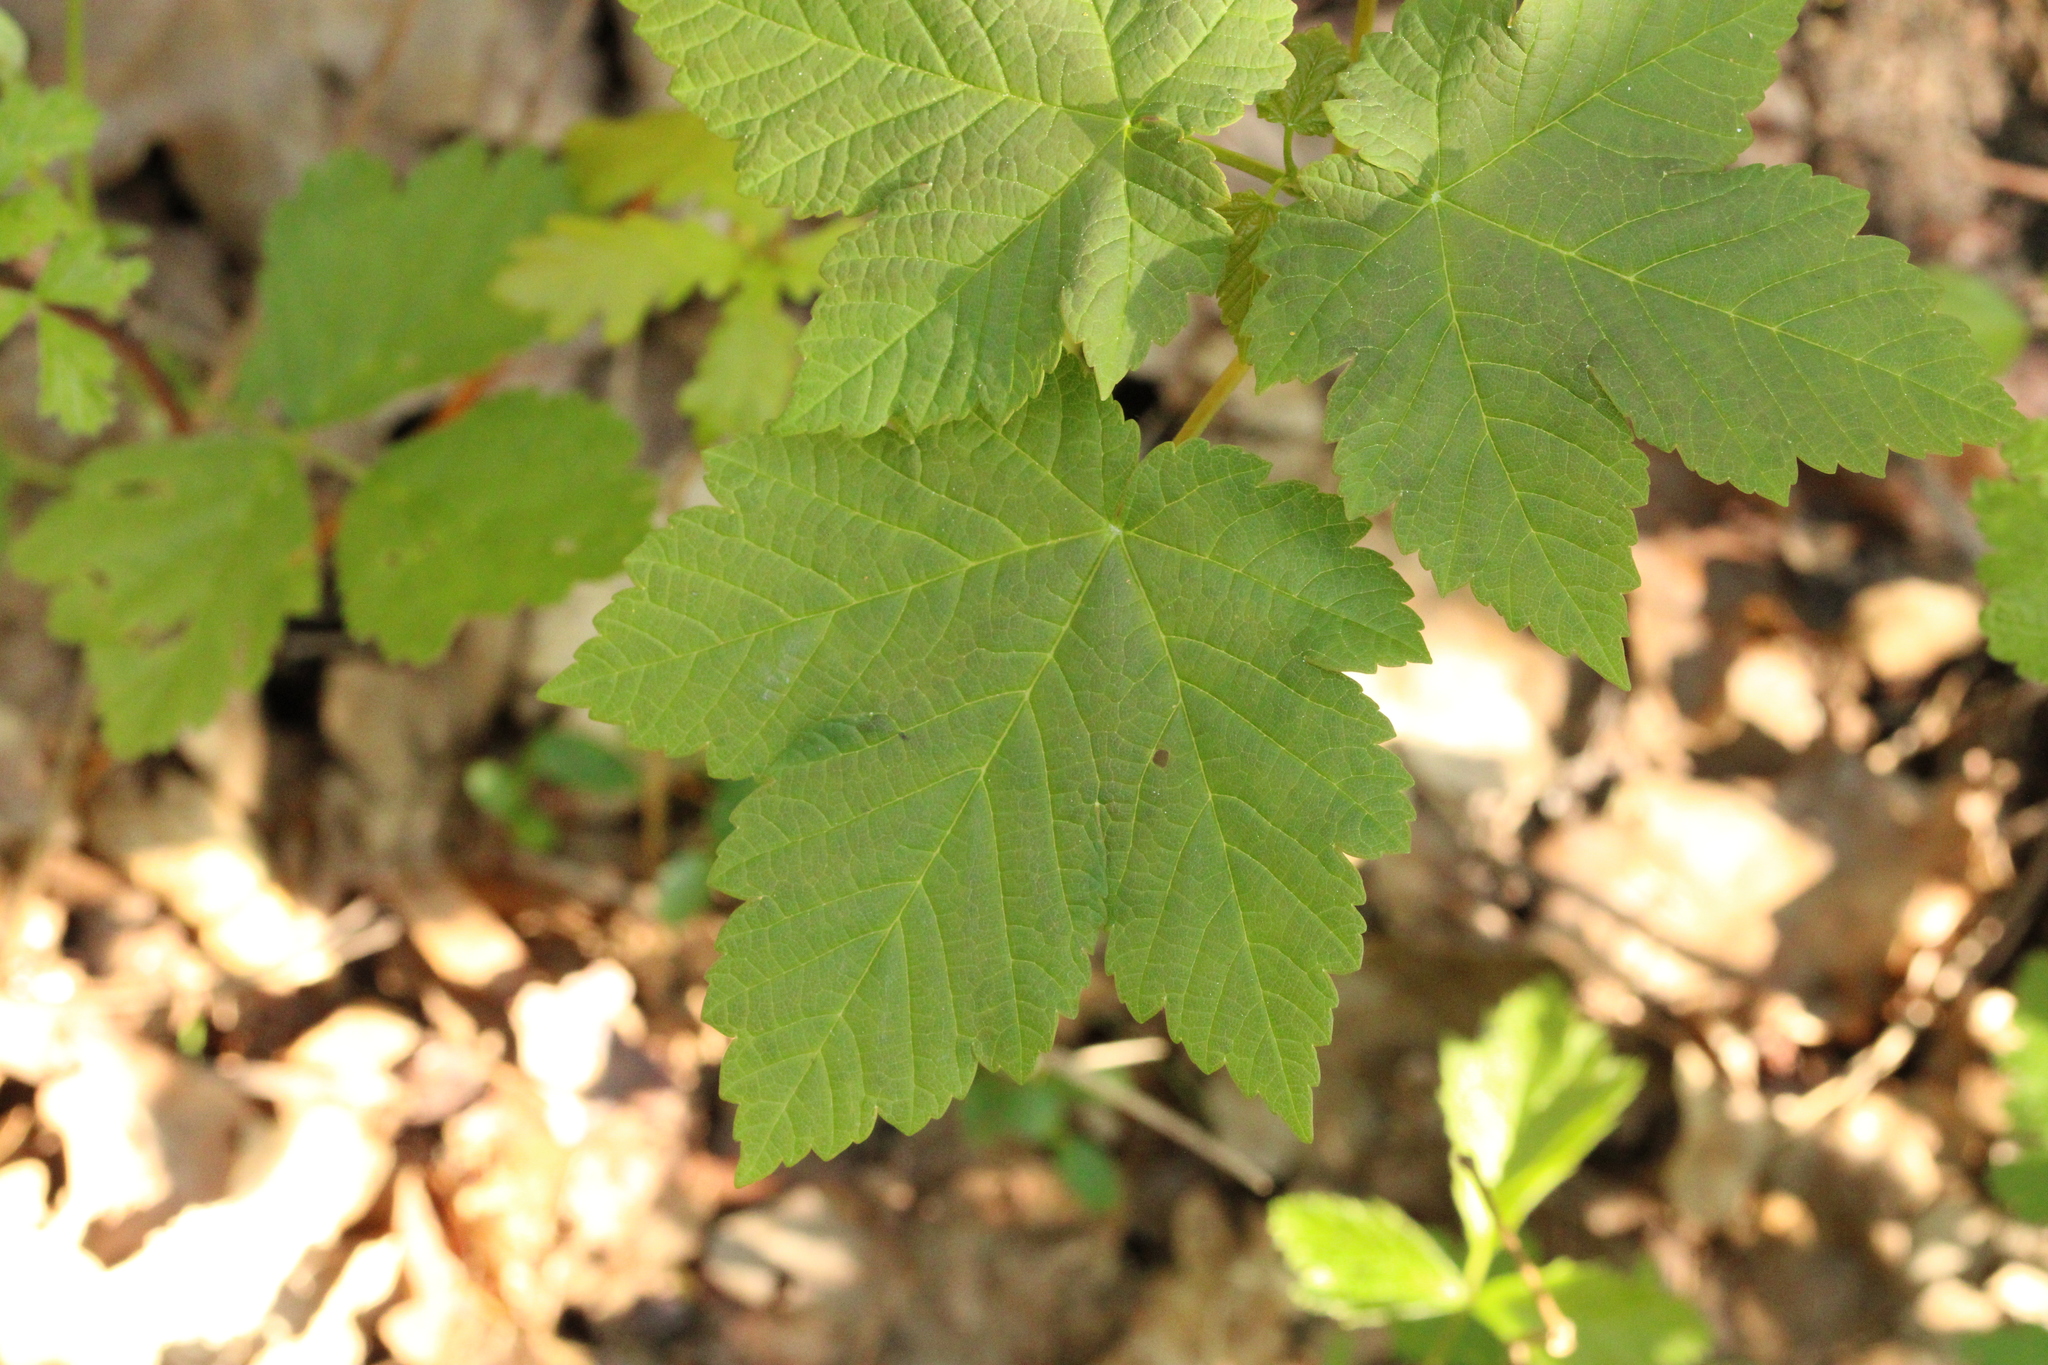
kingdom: Plantae
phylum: Tracheophyta
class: Magnoliopsida
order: Sapindales
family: Sapindaceae
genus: Acer
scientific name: Acer pseudoplatanus
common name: Sycamore
